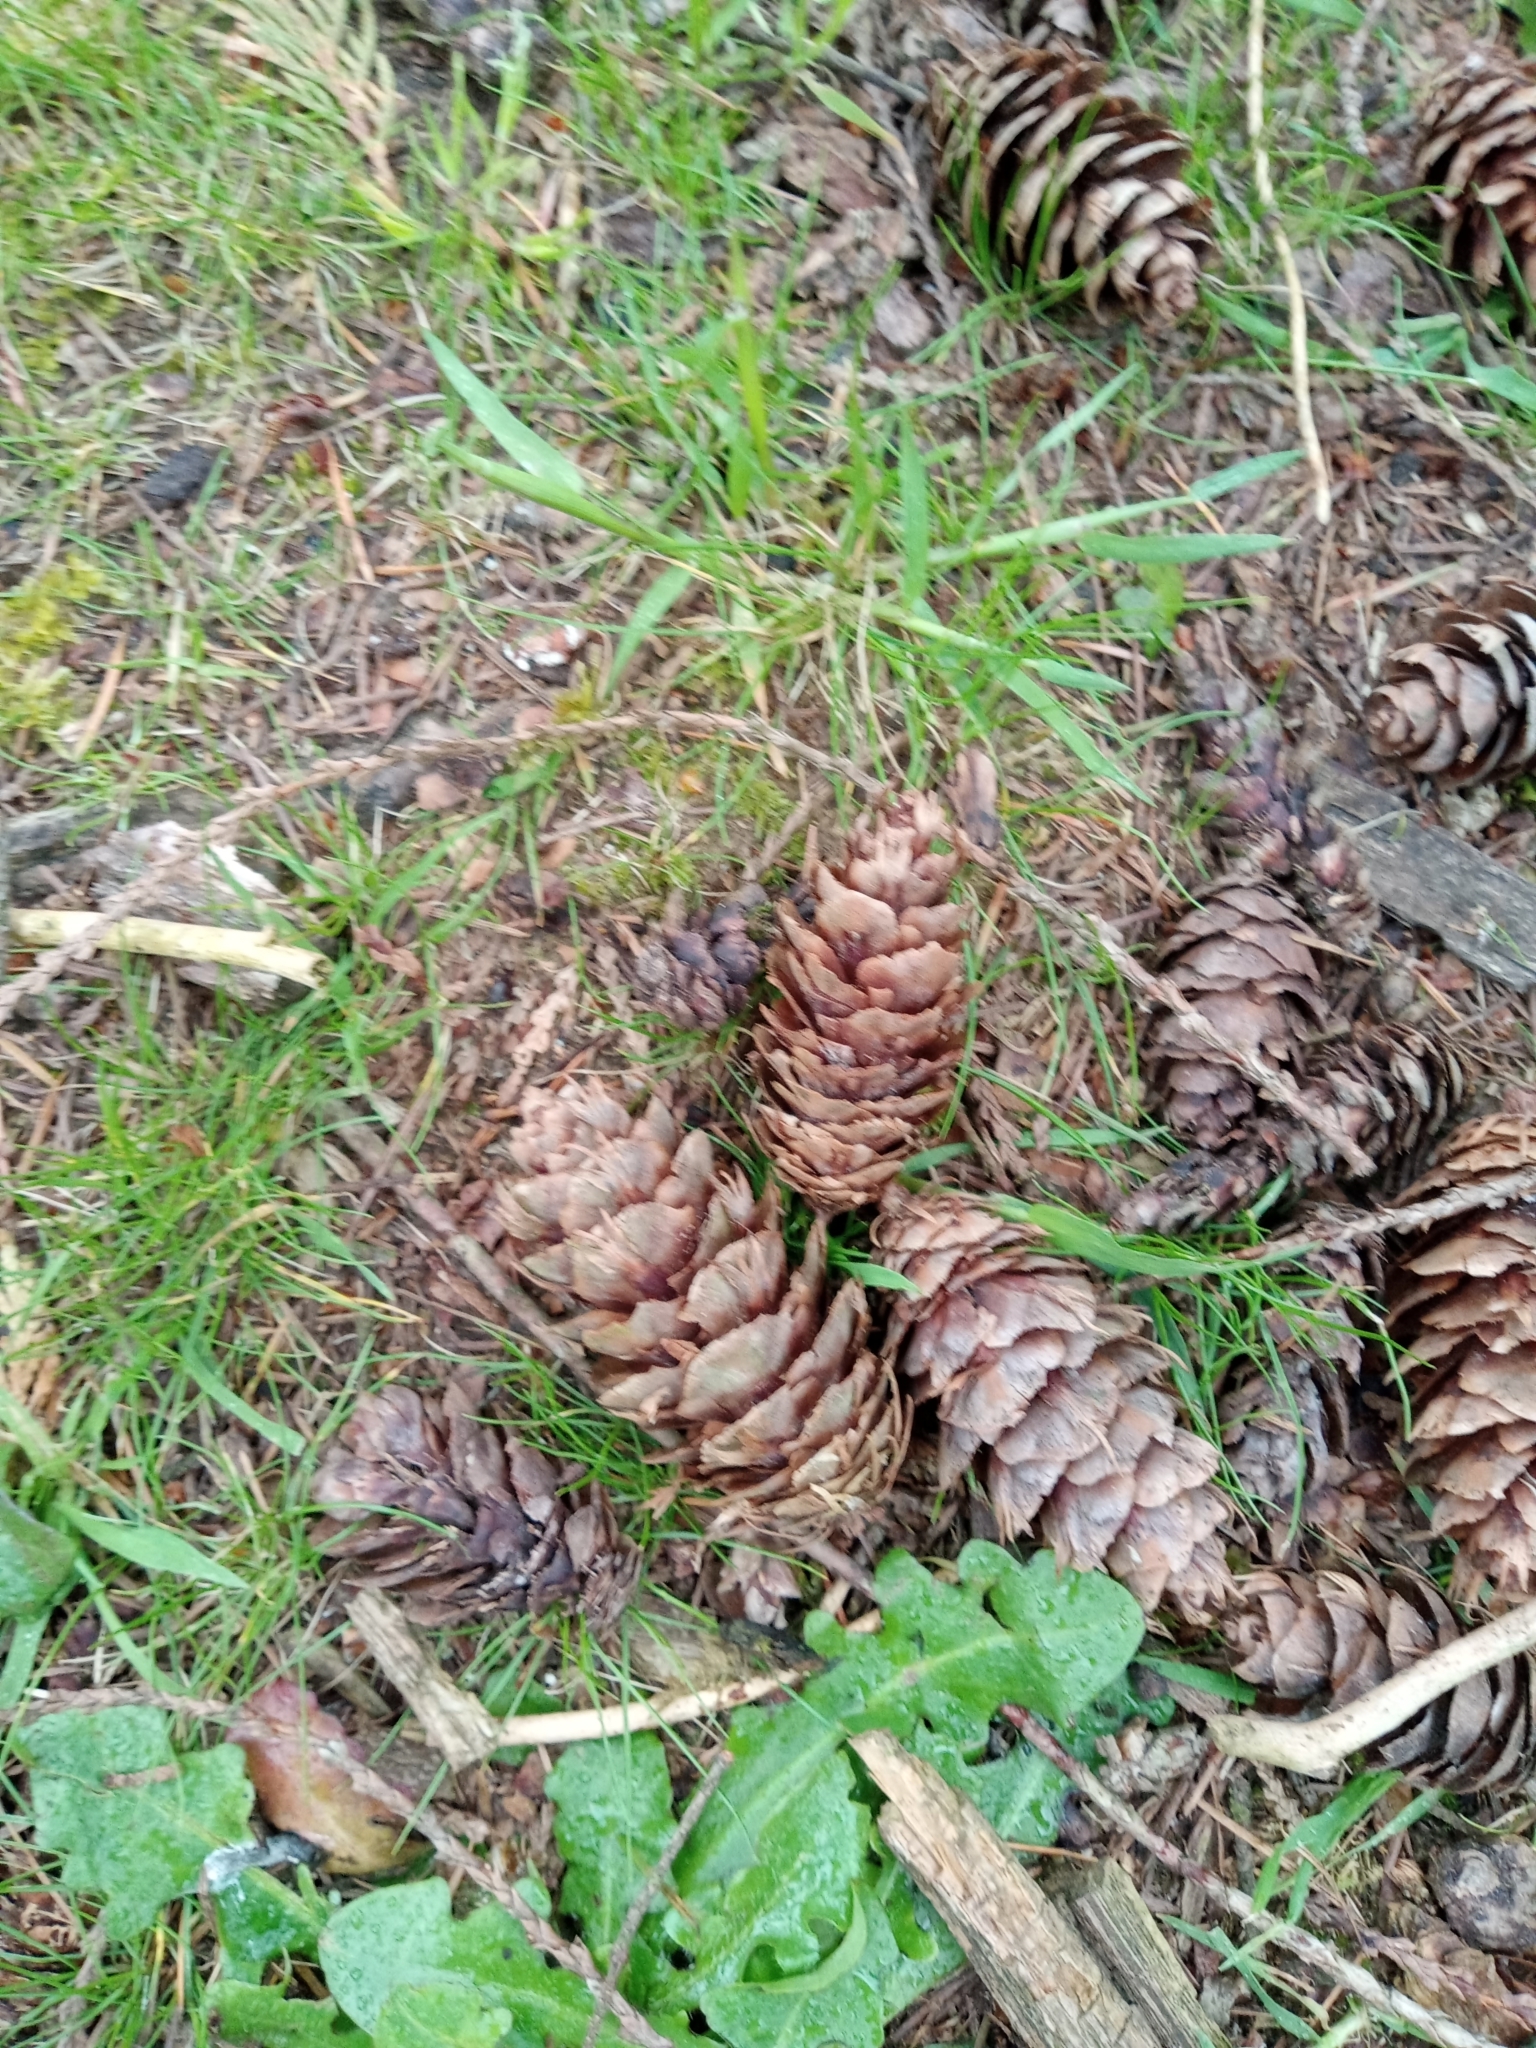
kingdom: Plantae
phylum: Tracheophyta
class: Pinopsida
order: Pinales
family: Pinaceae
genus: Pseudotsuga
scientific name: Pseudotsuga menziesii
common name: Douglas fir
